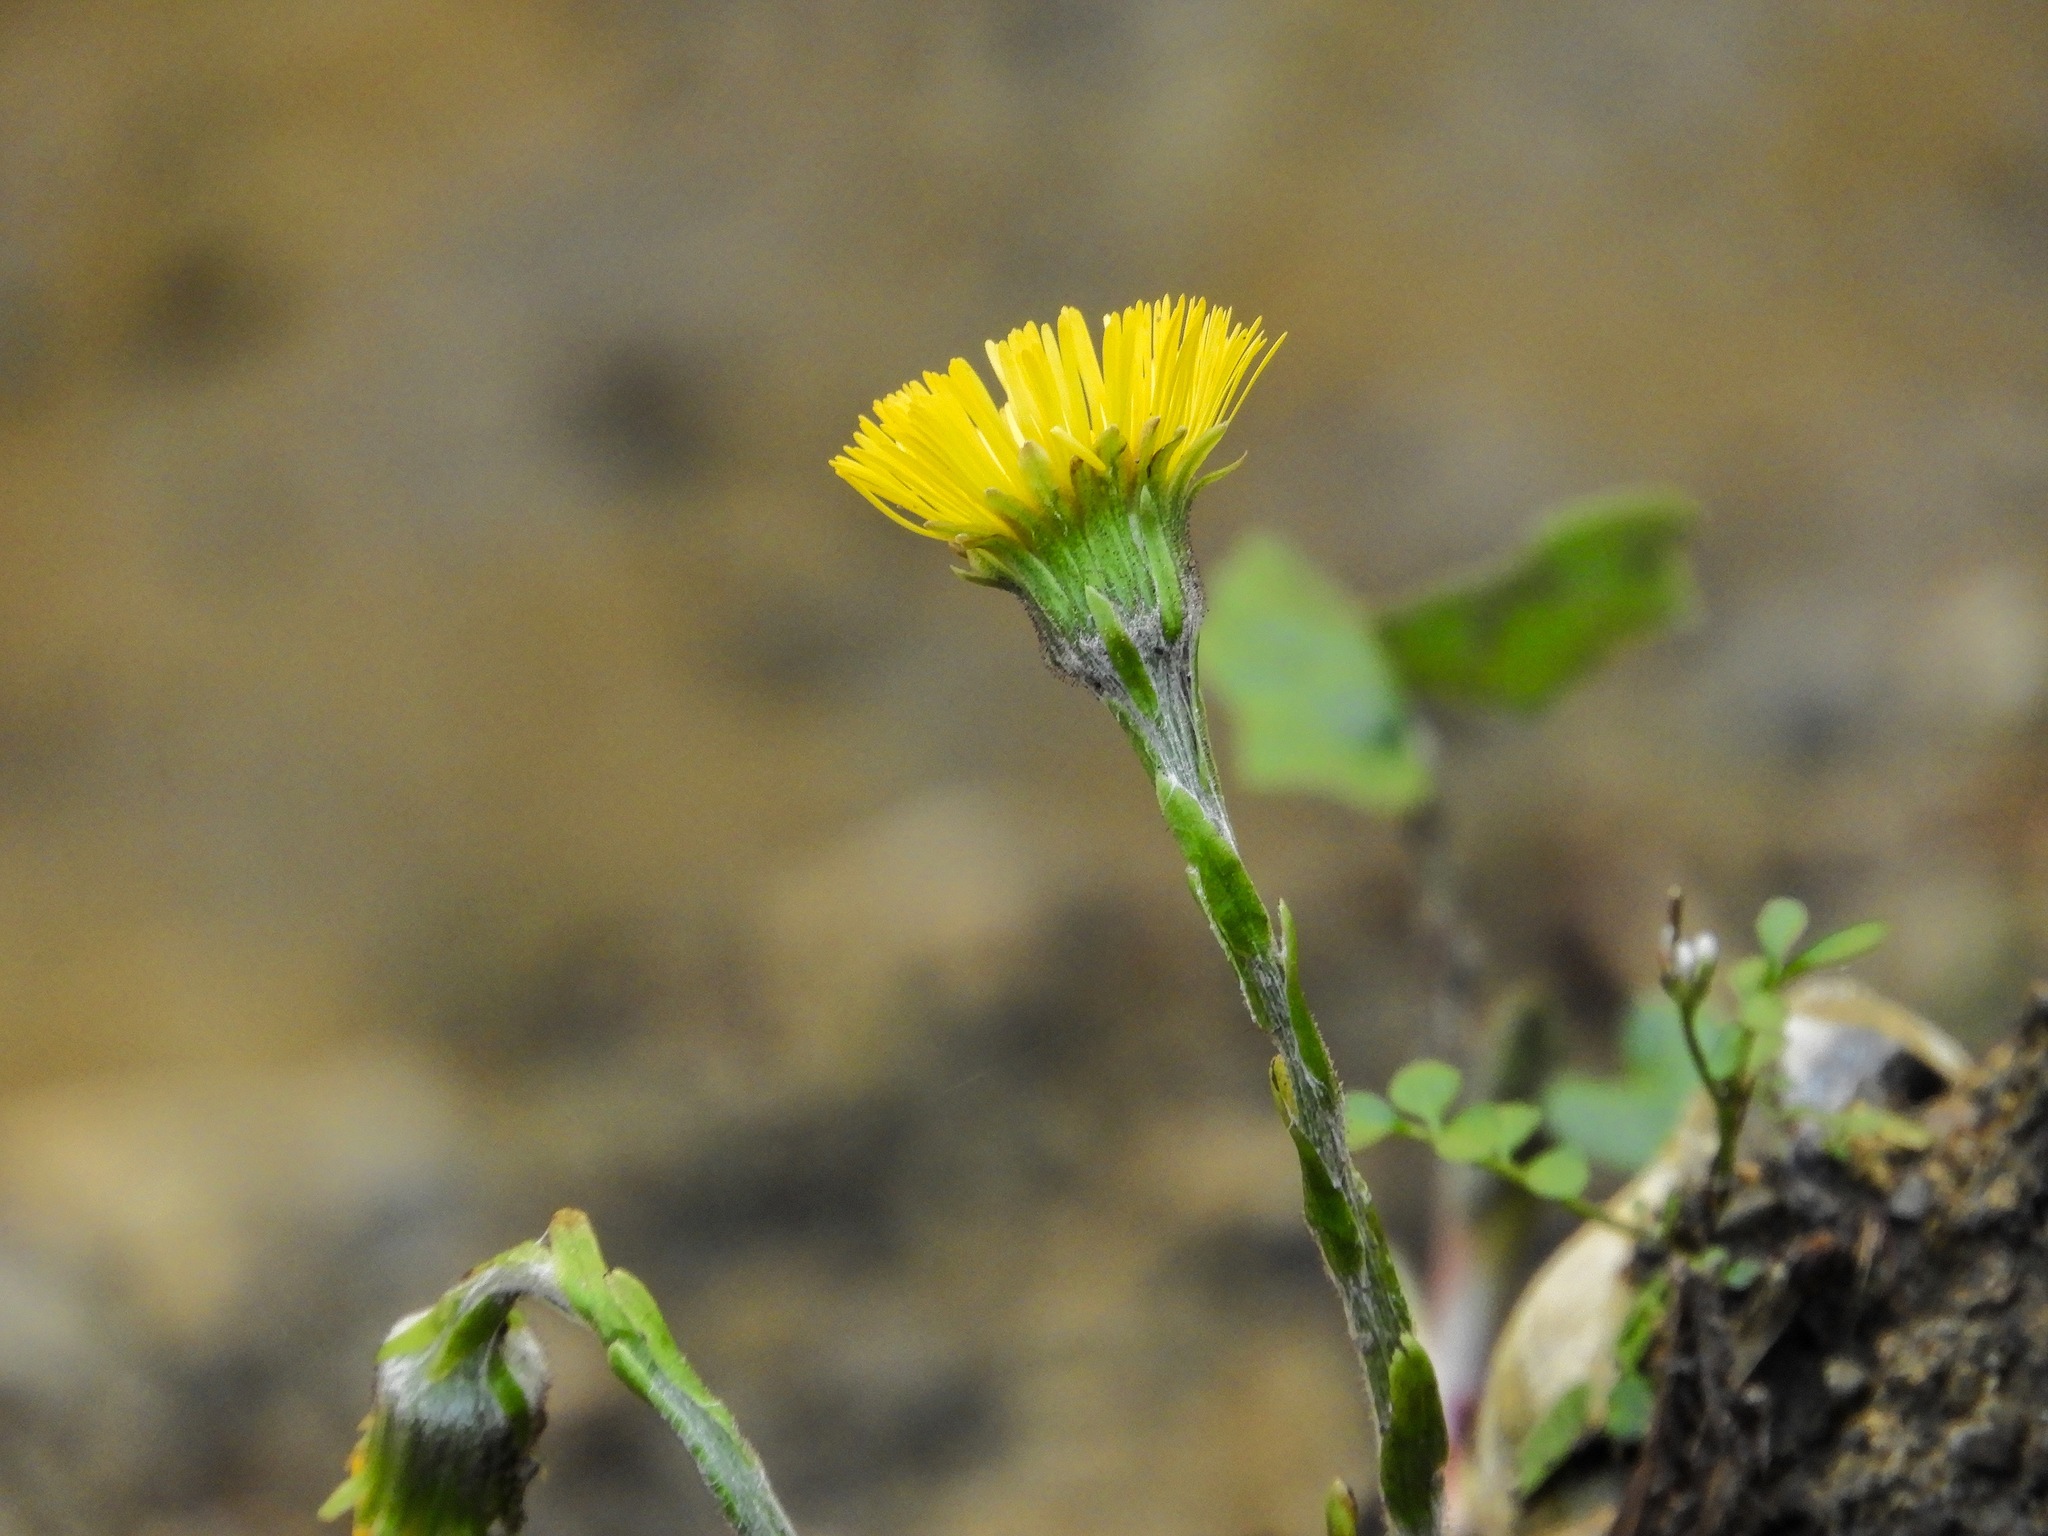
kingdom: Plantae
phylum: Tracheophyta
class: Magnoliopsida
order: Asterales
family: Asteraceae
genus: Tussilago
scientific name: Tussilago farfara
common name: Coltsfoot
